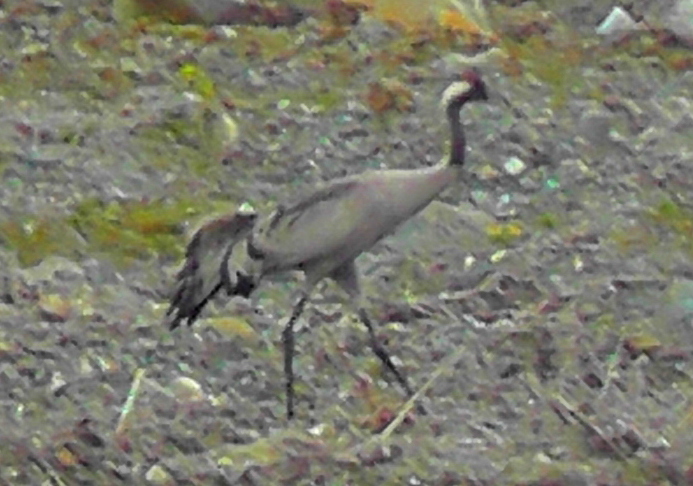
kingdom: Animalia
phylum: Chordata
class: Aves
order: Gruiformes
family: Gruidae
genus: Grus
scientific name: Grus grus
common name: Common crane
